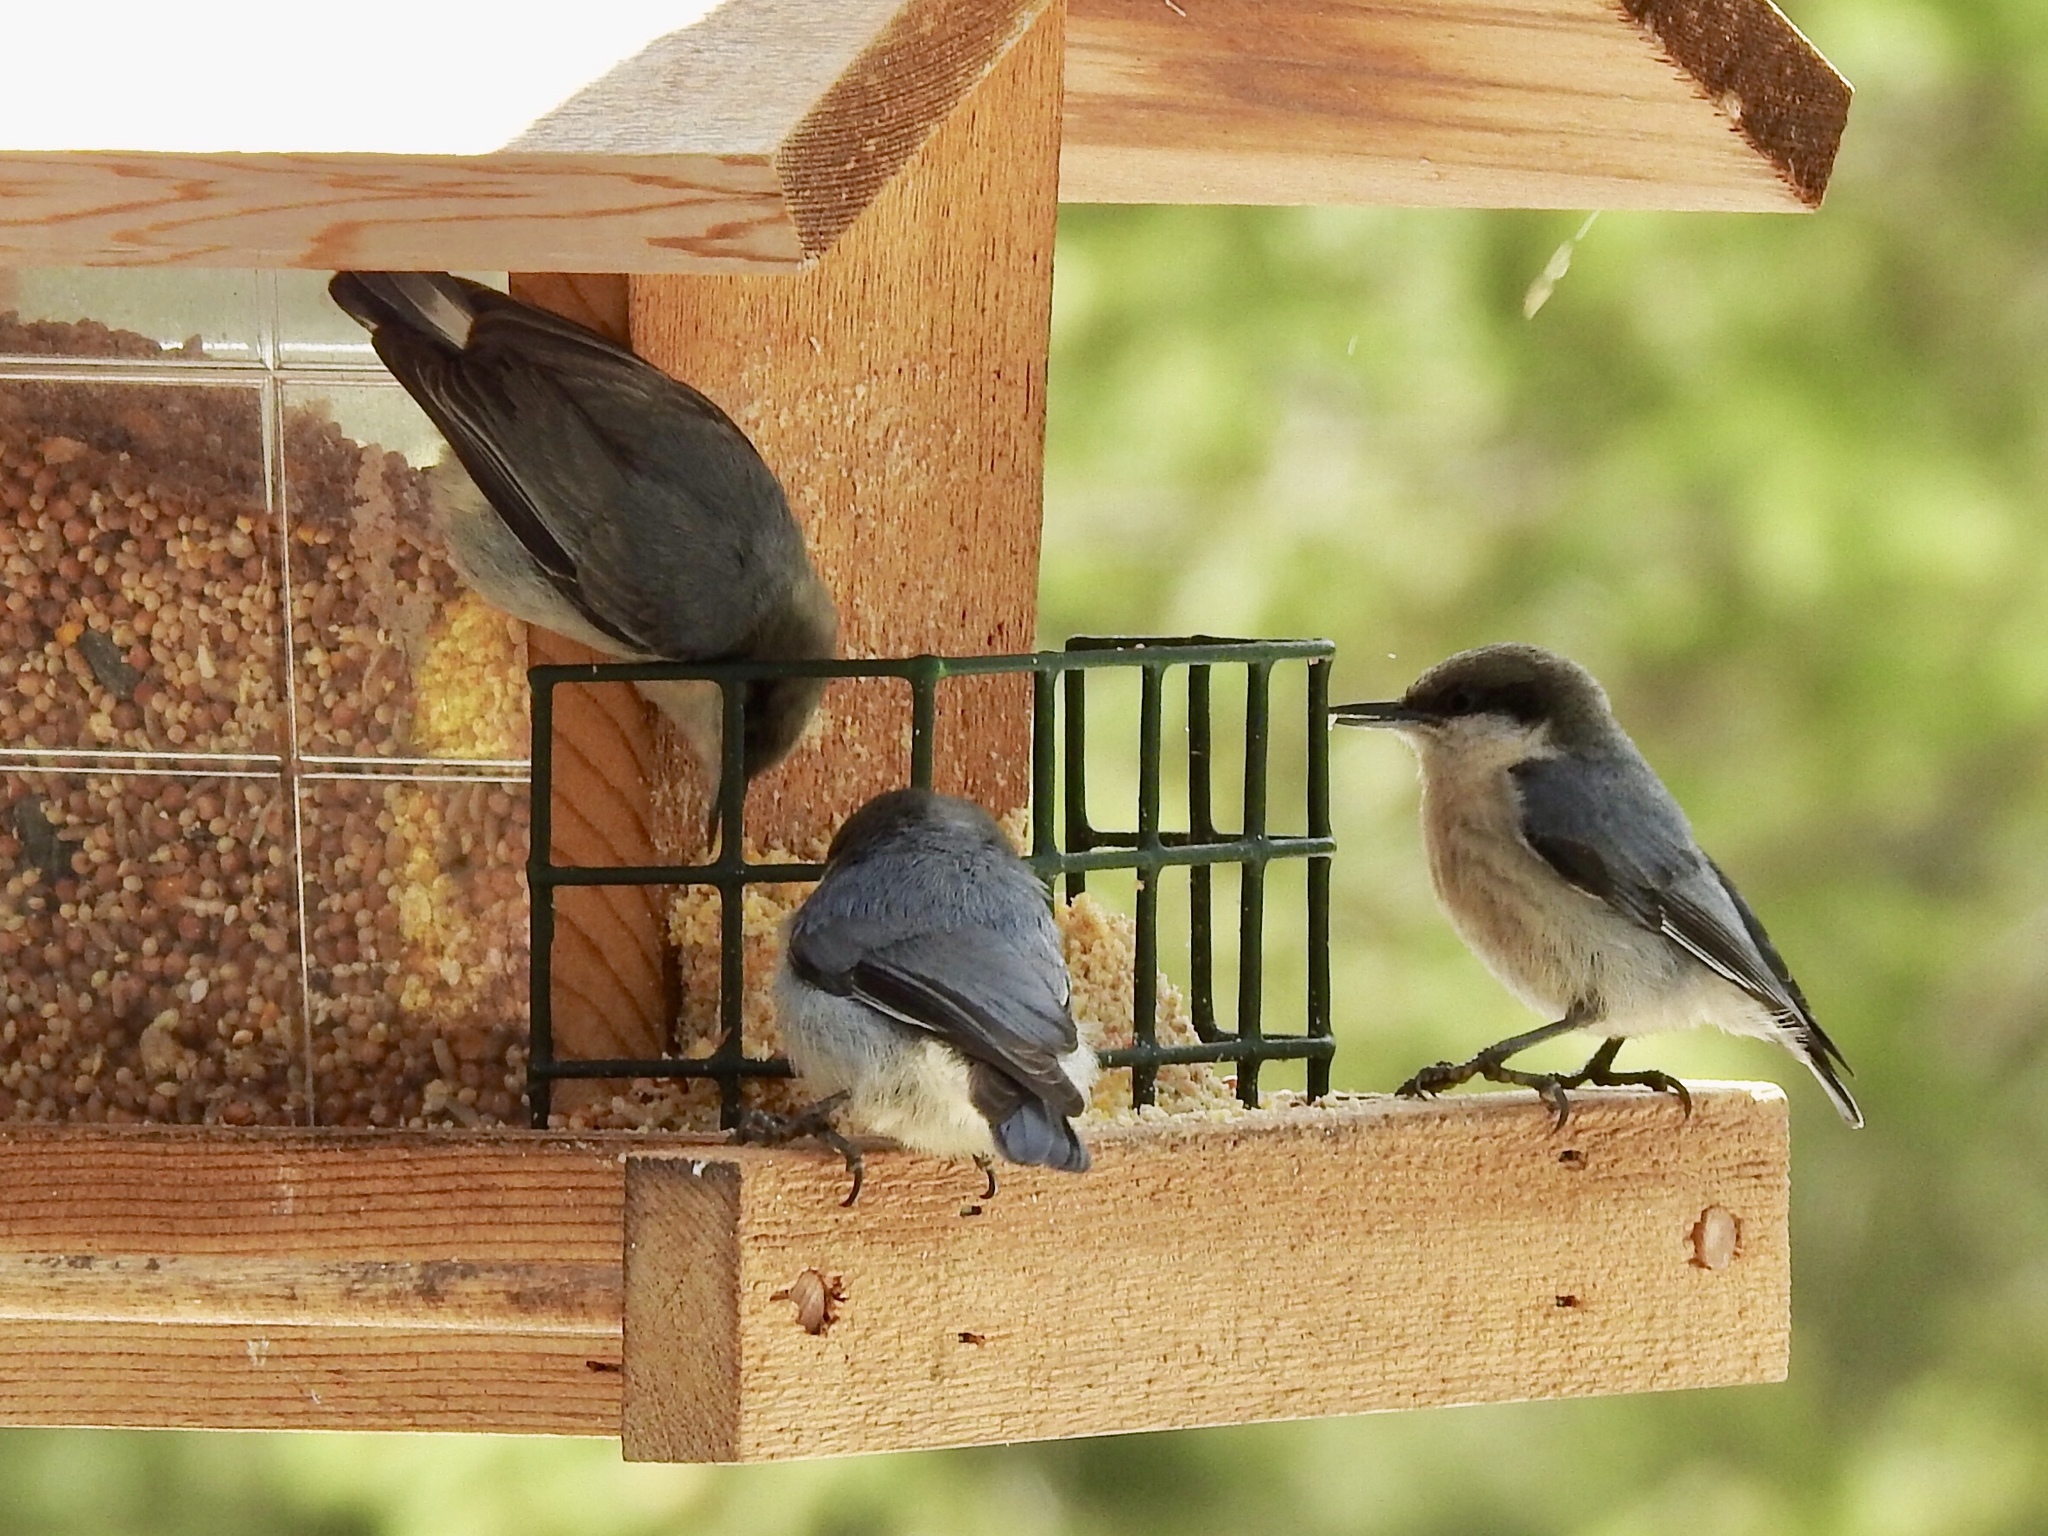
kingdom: Animalia
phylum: Chordata
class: Aves
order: Passeriformes
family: Sittidae
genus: Sitta
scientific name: Sitta pygmaea
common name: Pygmy nuthatch
